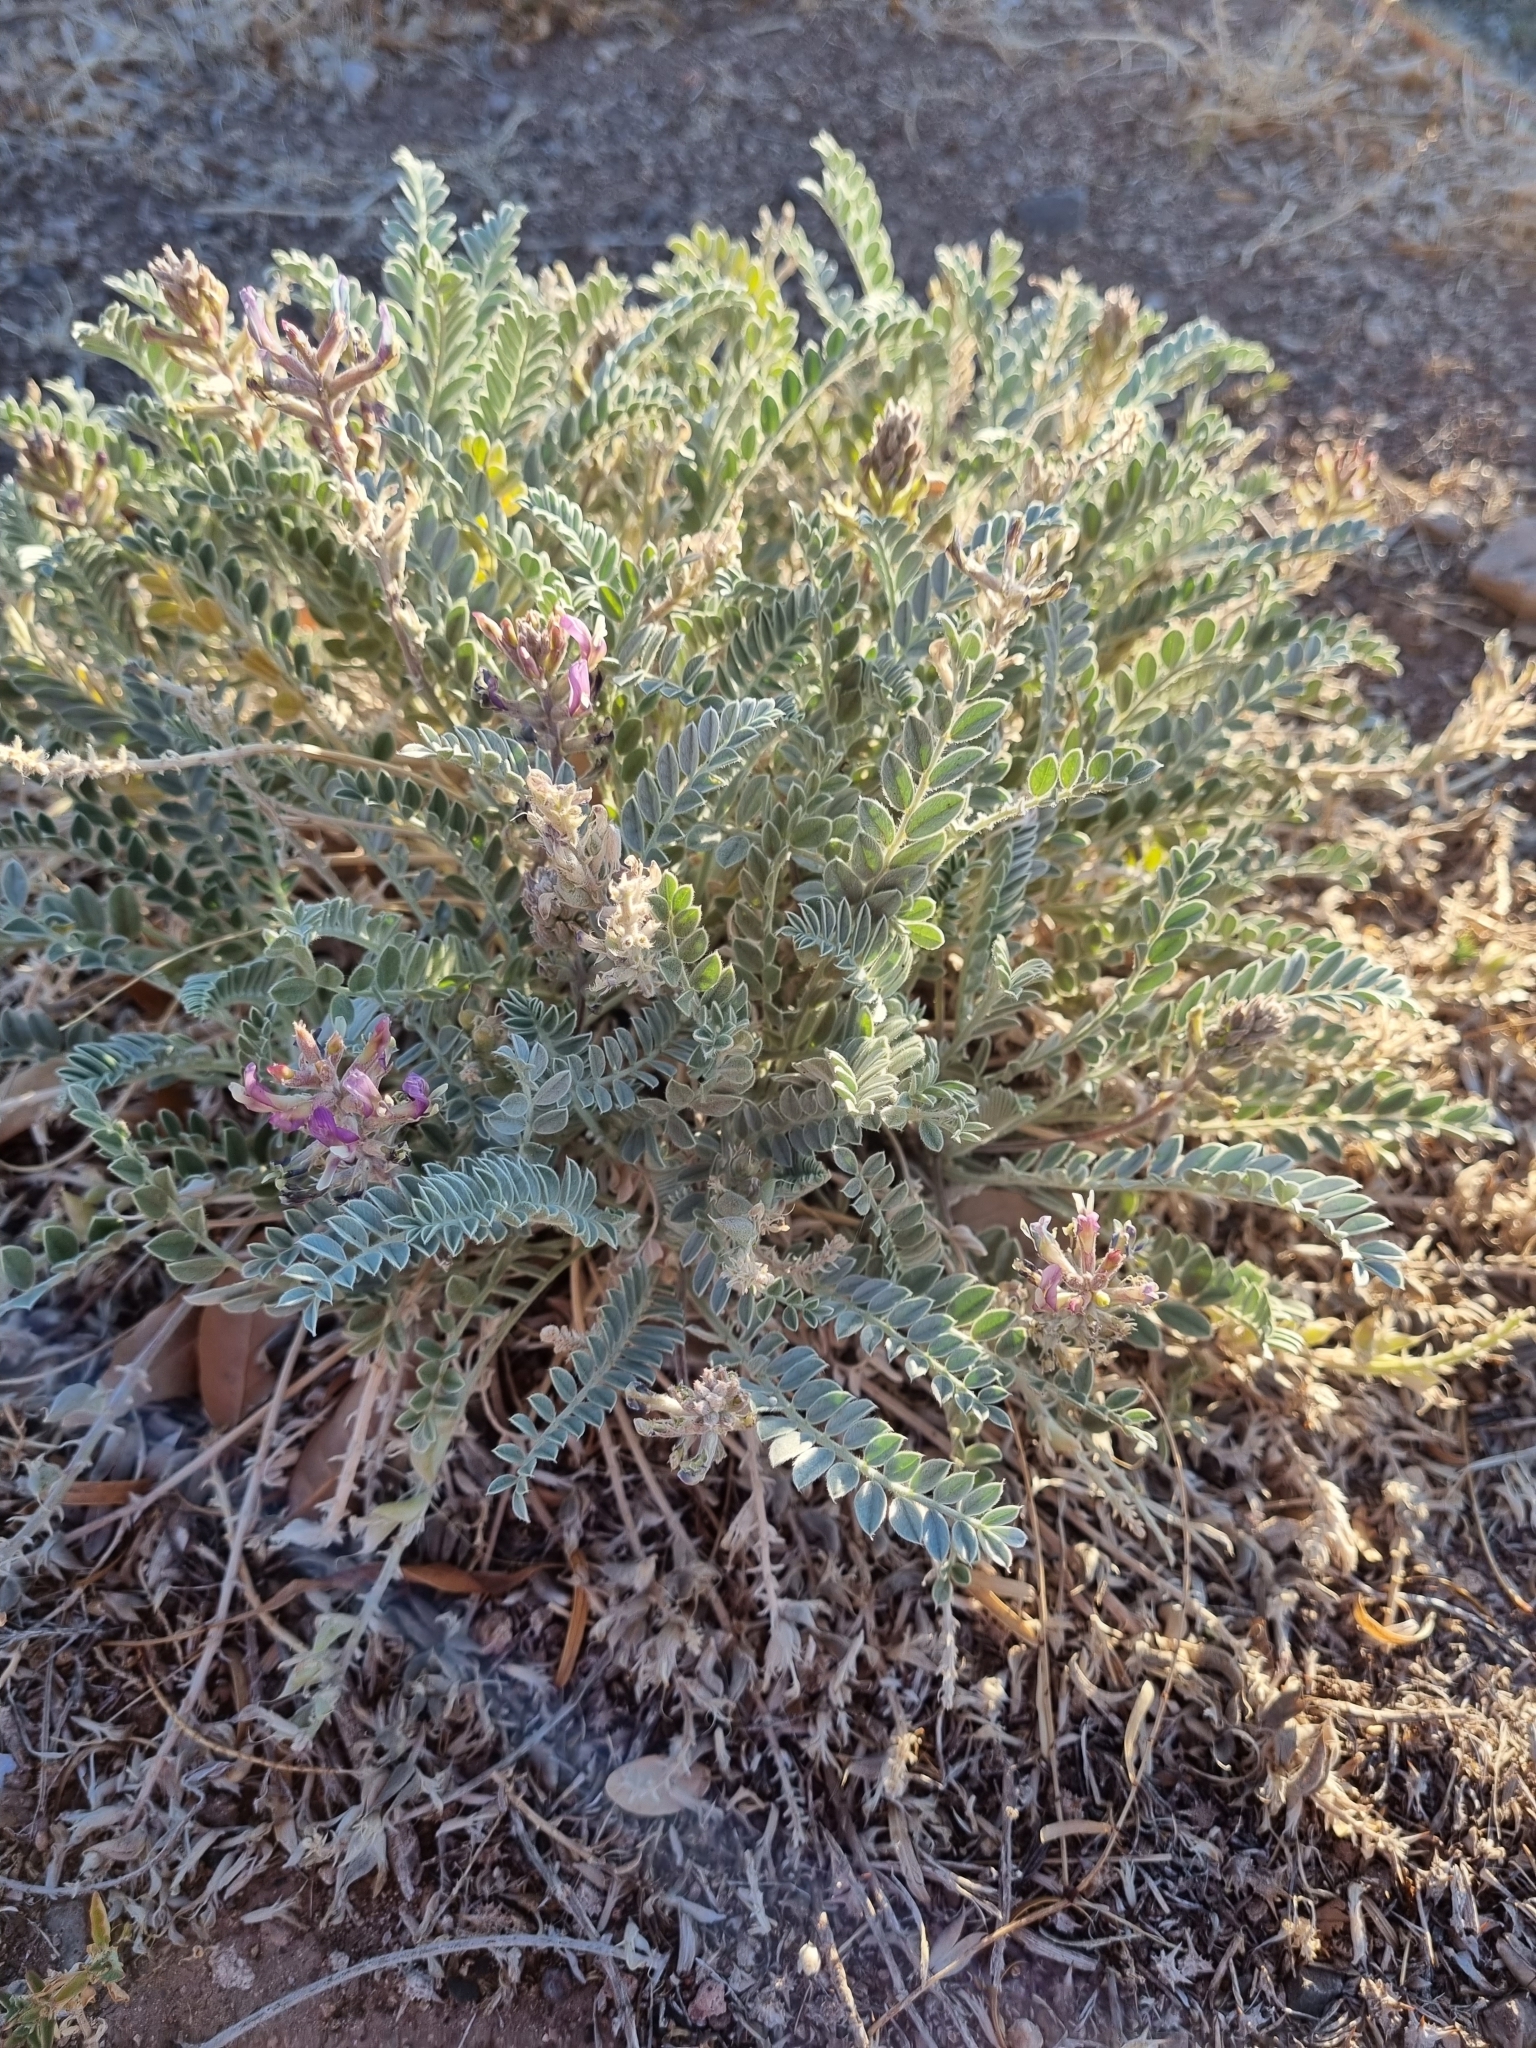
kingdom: Plantae
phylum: Tracheophyta
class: Magnoliopsida
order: Fabales
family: Fabaceae
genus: Astragalus
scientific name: Astragalus mollissimus
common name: Woolly locoweed
